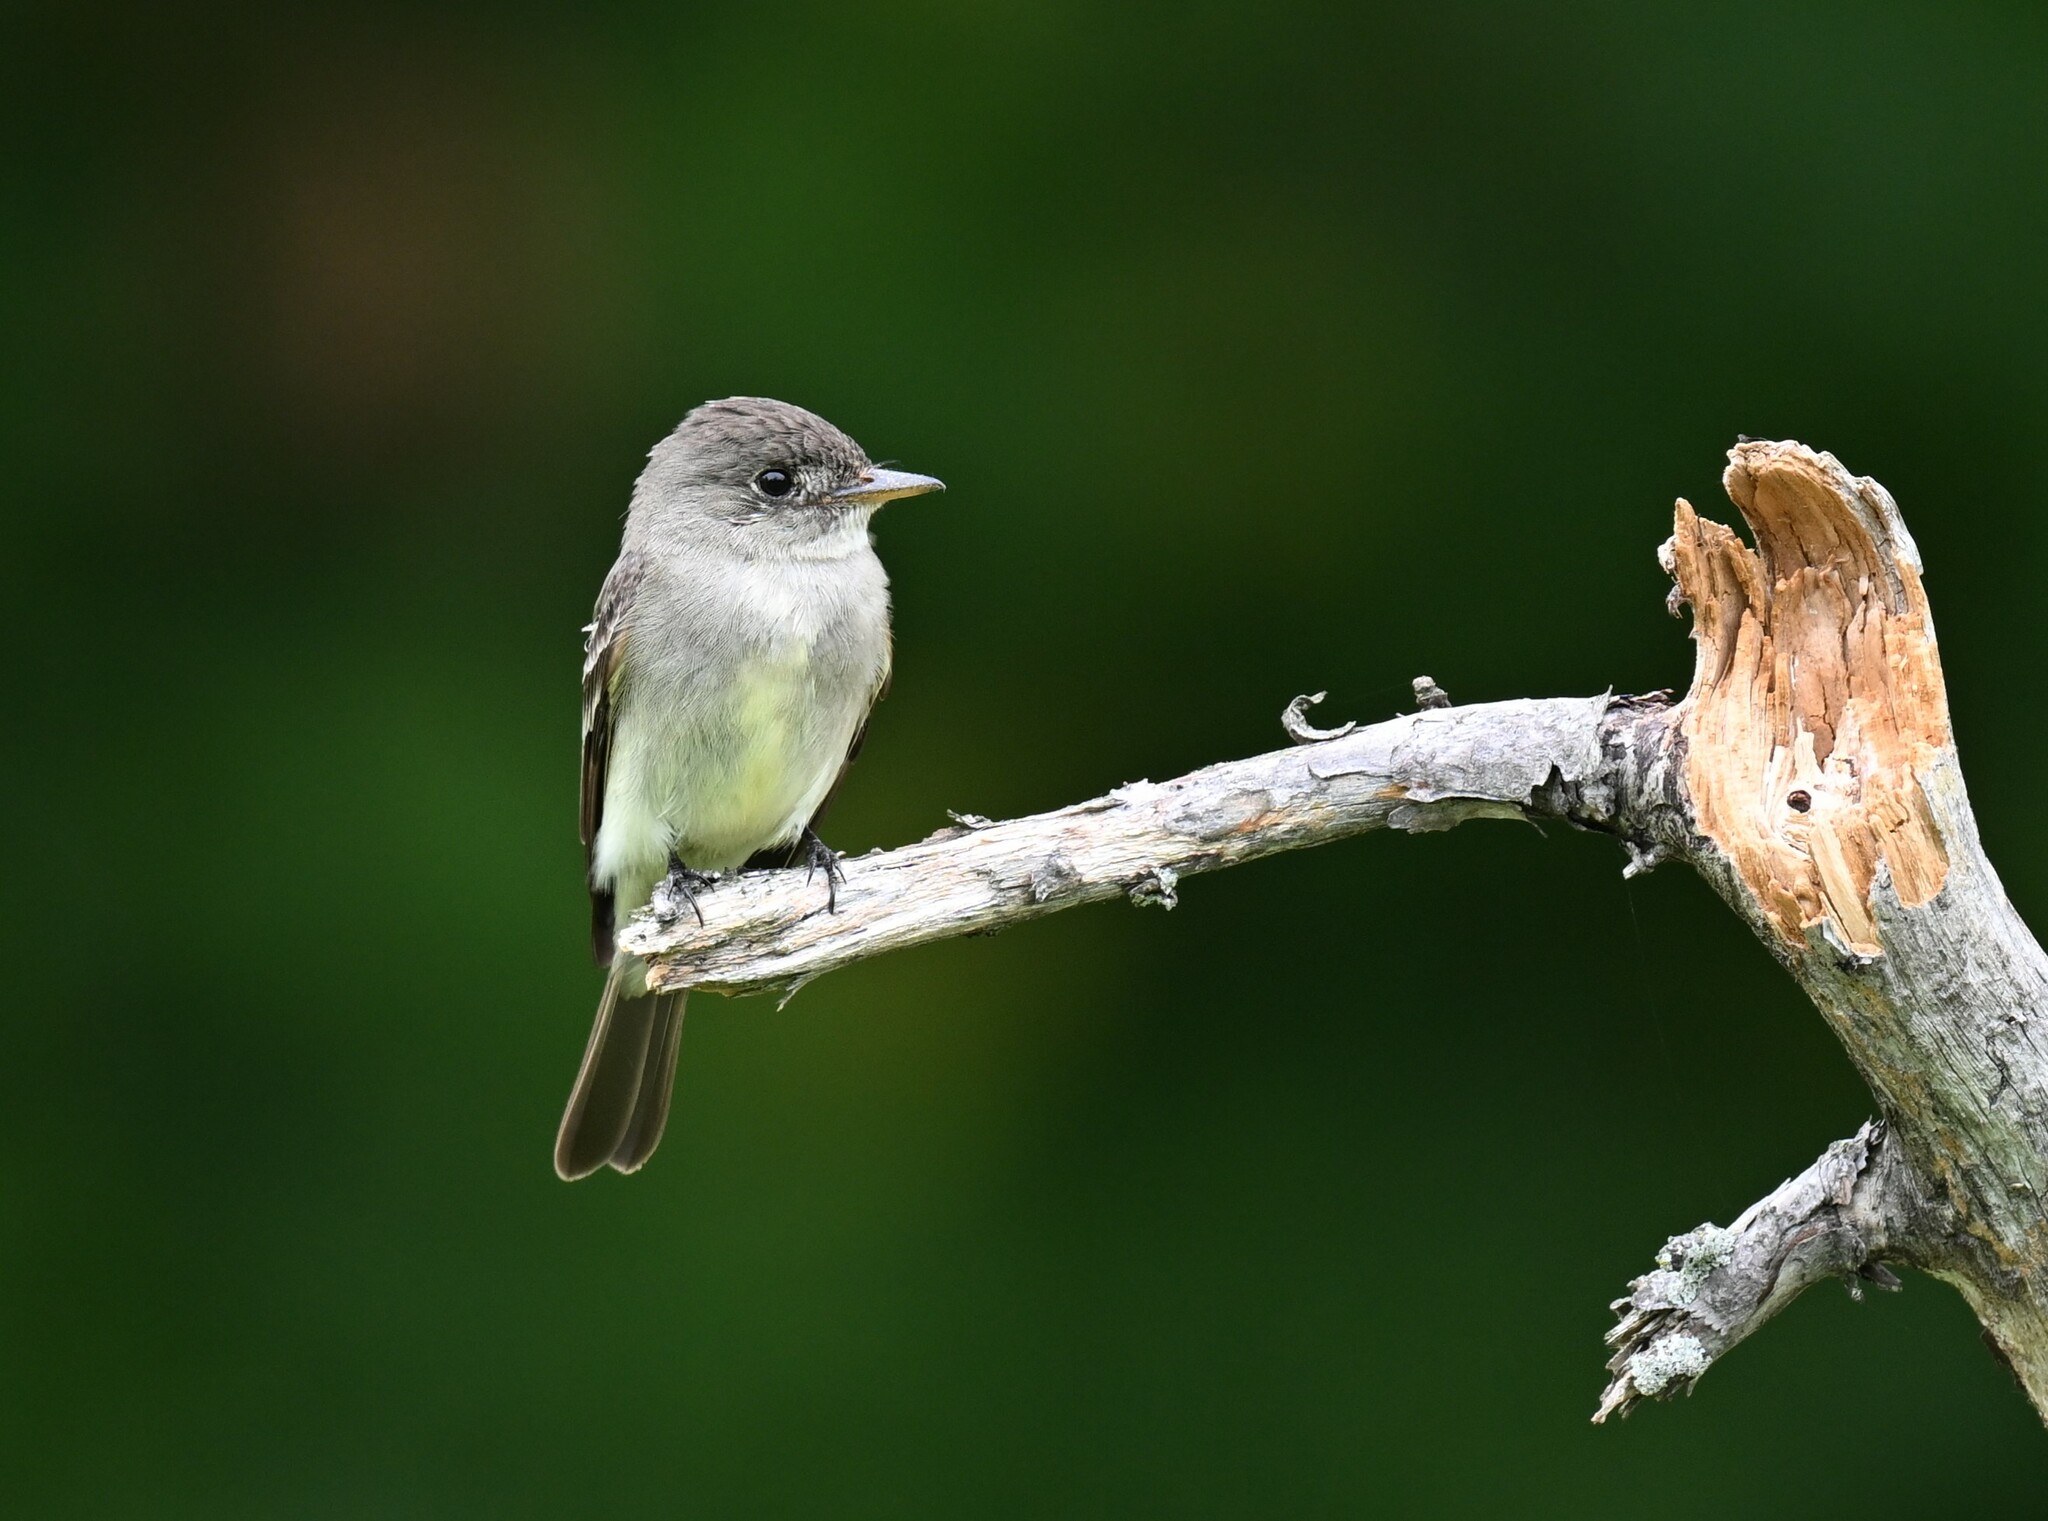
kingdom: Animalia
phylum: Chordata
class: Aves
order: Passeriformes
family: Tyrannidae
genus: Contopus
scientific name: Contopus virens
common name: Eastern wood-pewee
